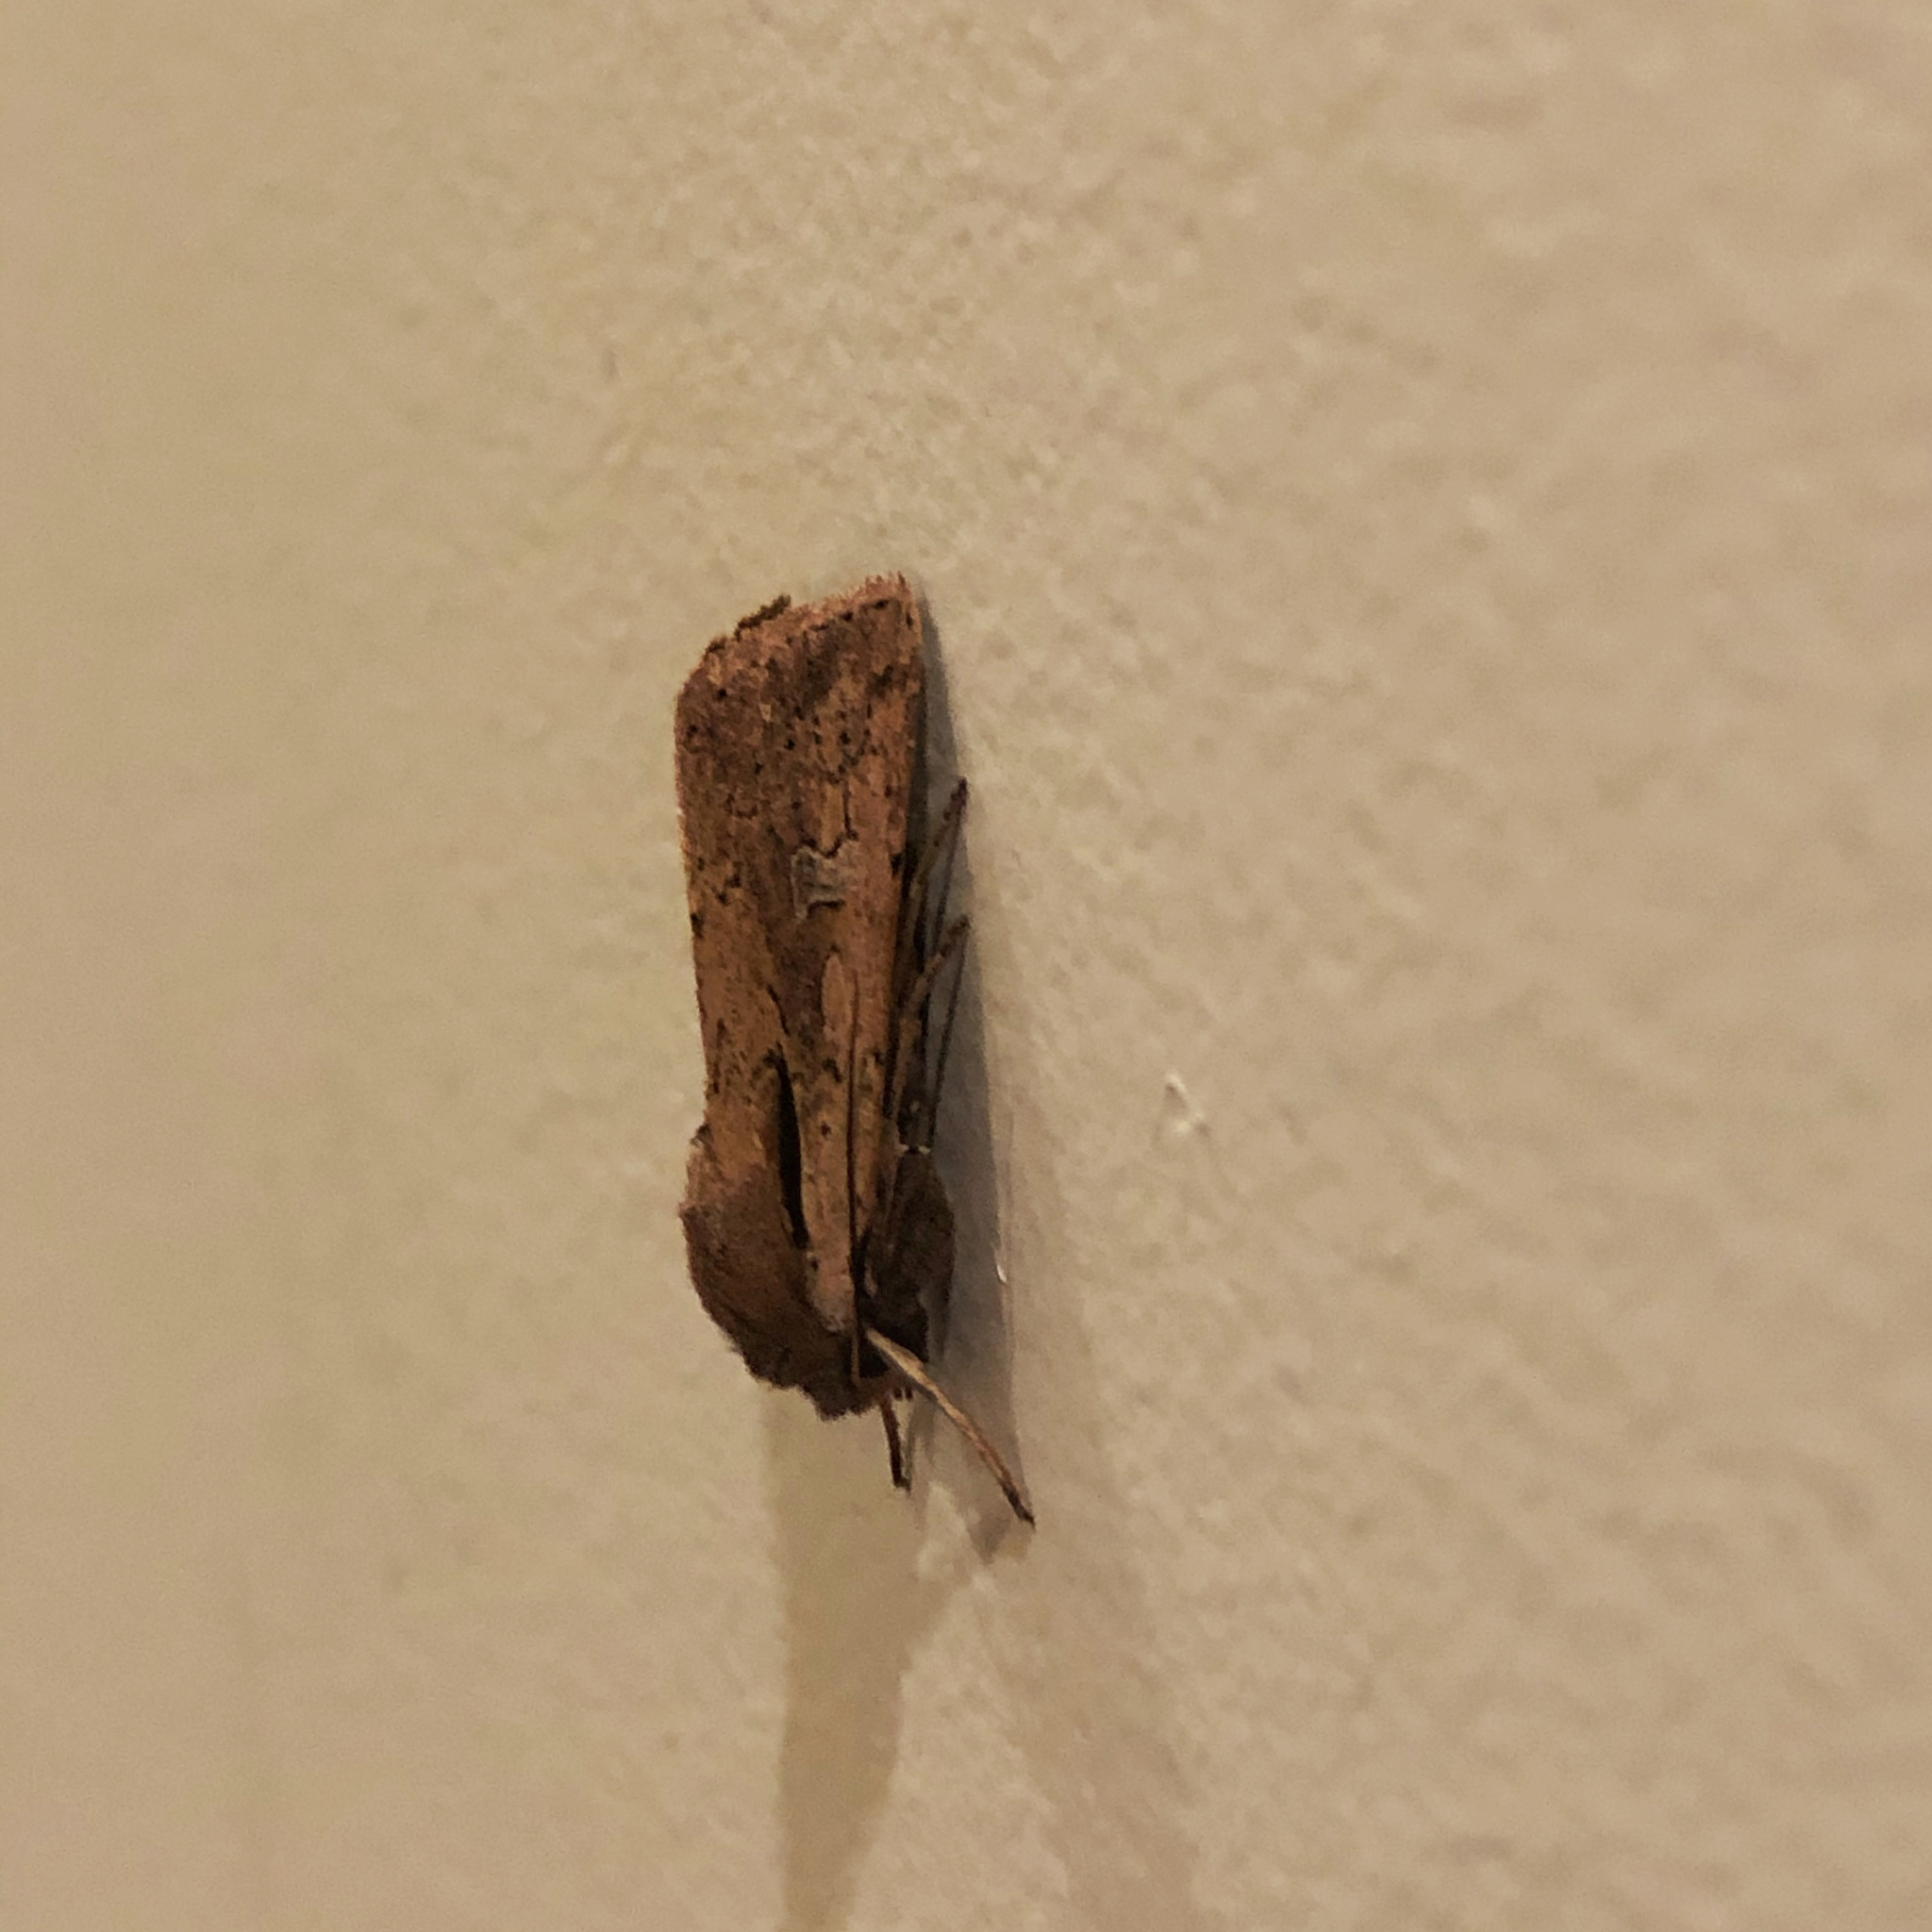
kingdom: Animalia
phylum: Arthropoda
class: Insecta
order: Lepidoptera
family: Noctuidae
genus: Ichneutica
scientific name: Ichneutica atristriga
